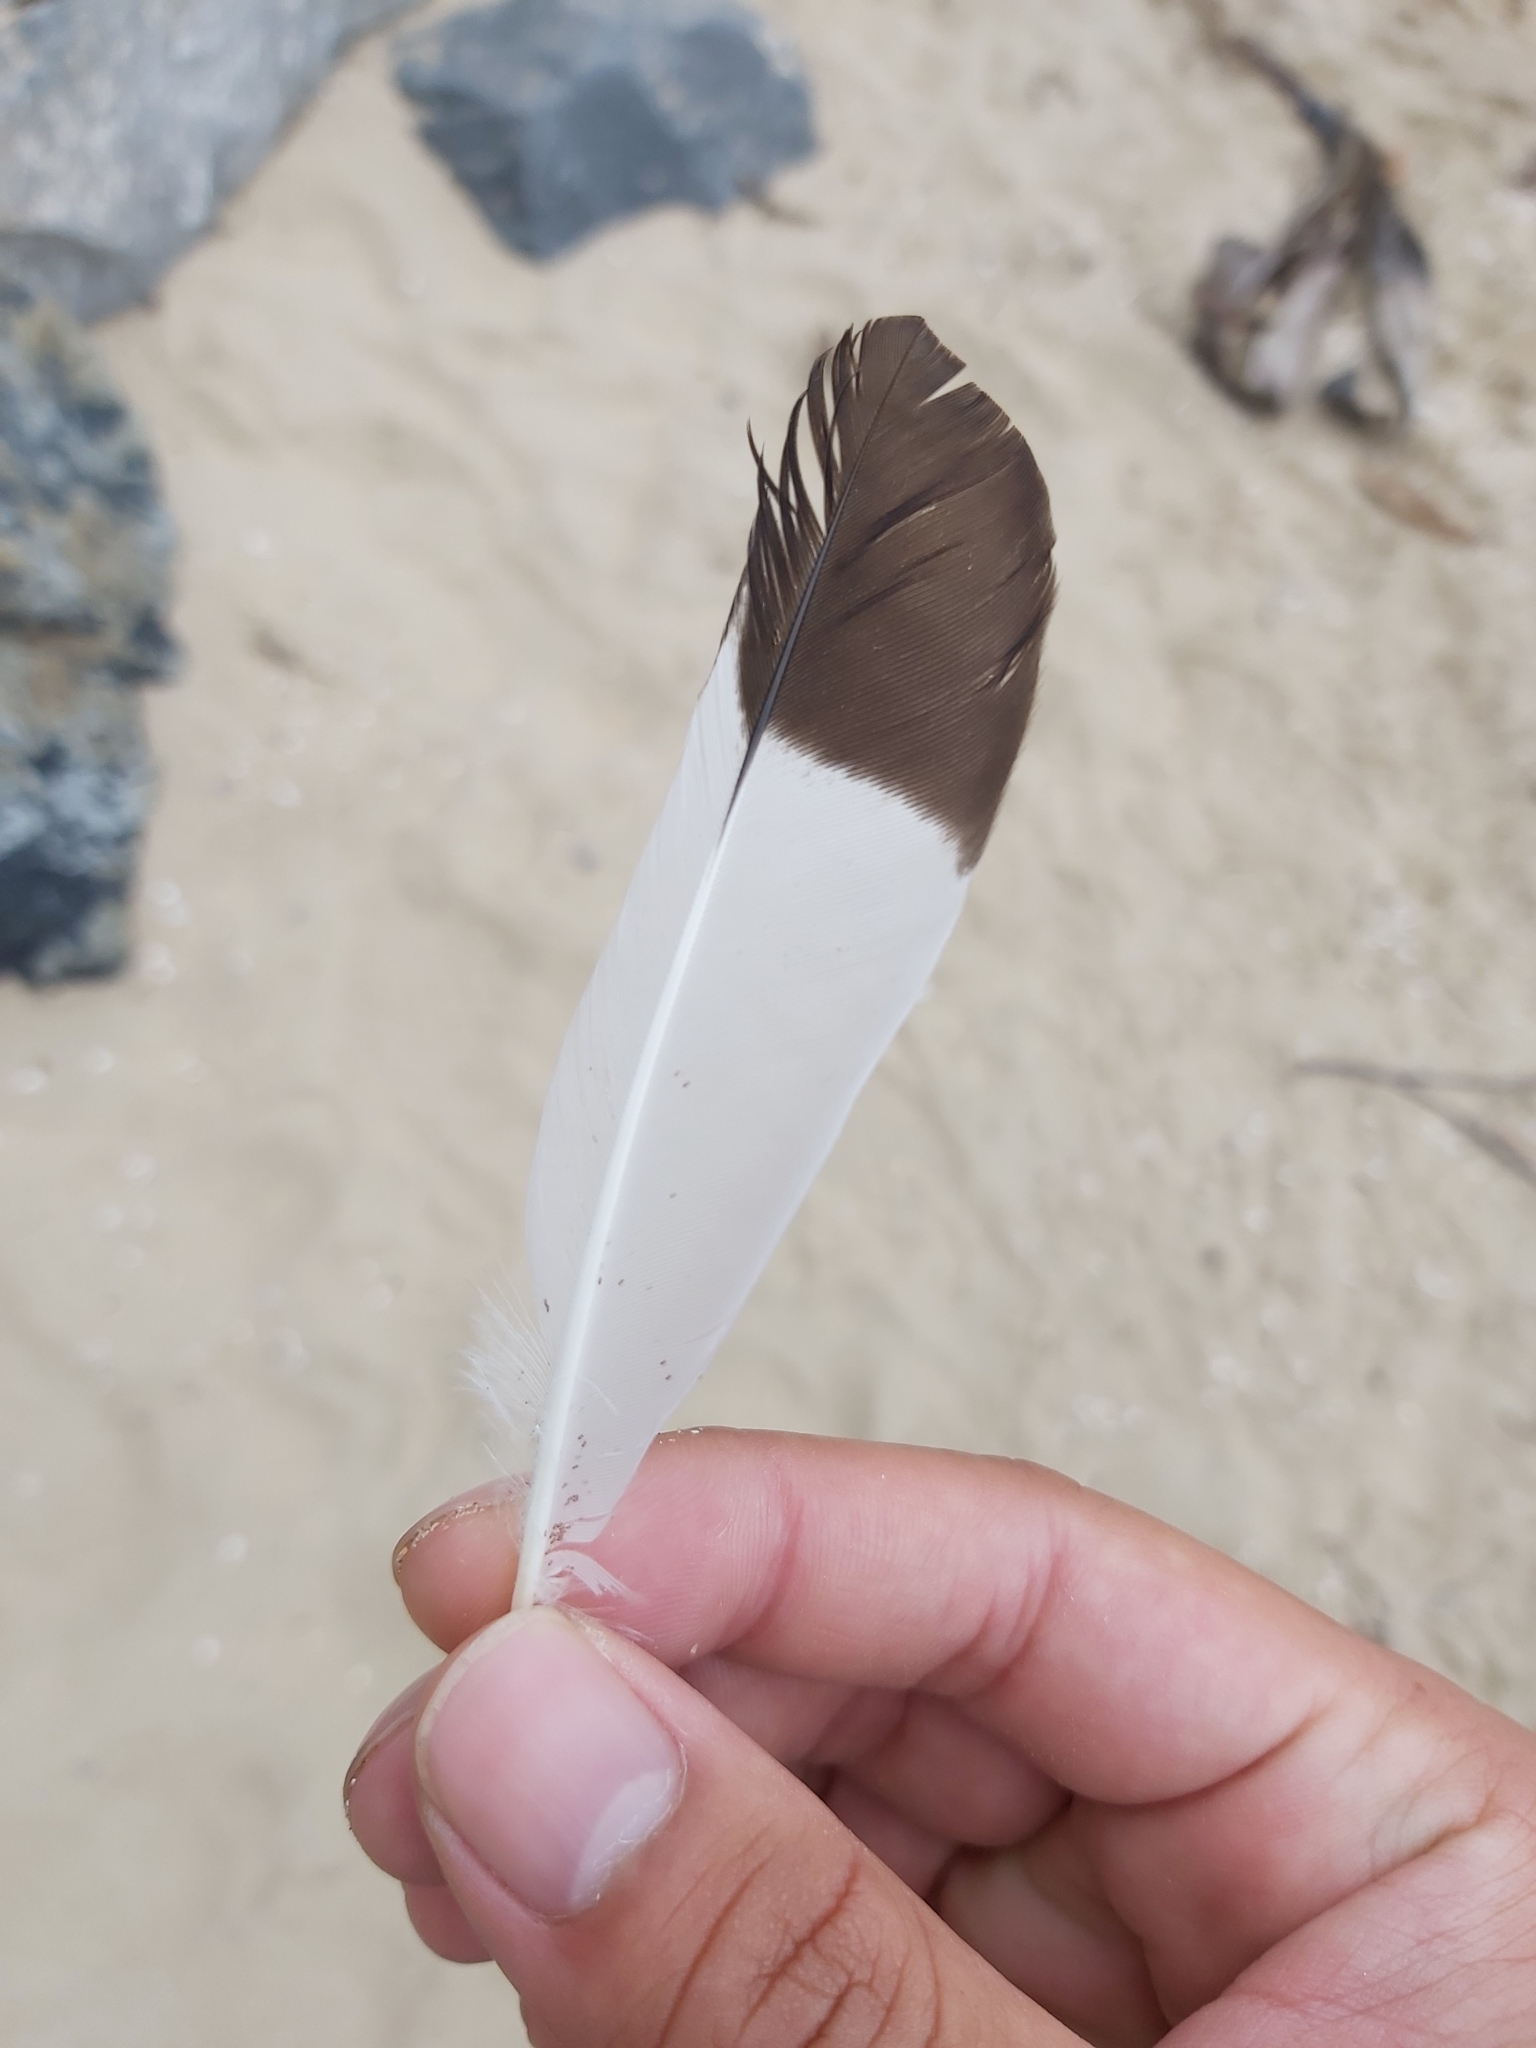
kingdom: Animalia
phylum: Chordata
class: Aves
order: Passeriformes
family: Sturnidae
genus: Acridotheres
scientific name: Acridotheres tristis
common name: Common myna
